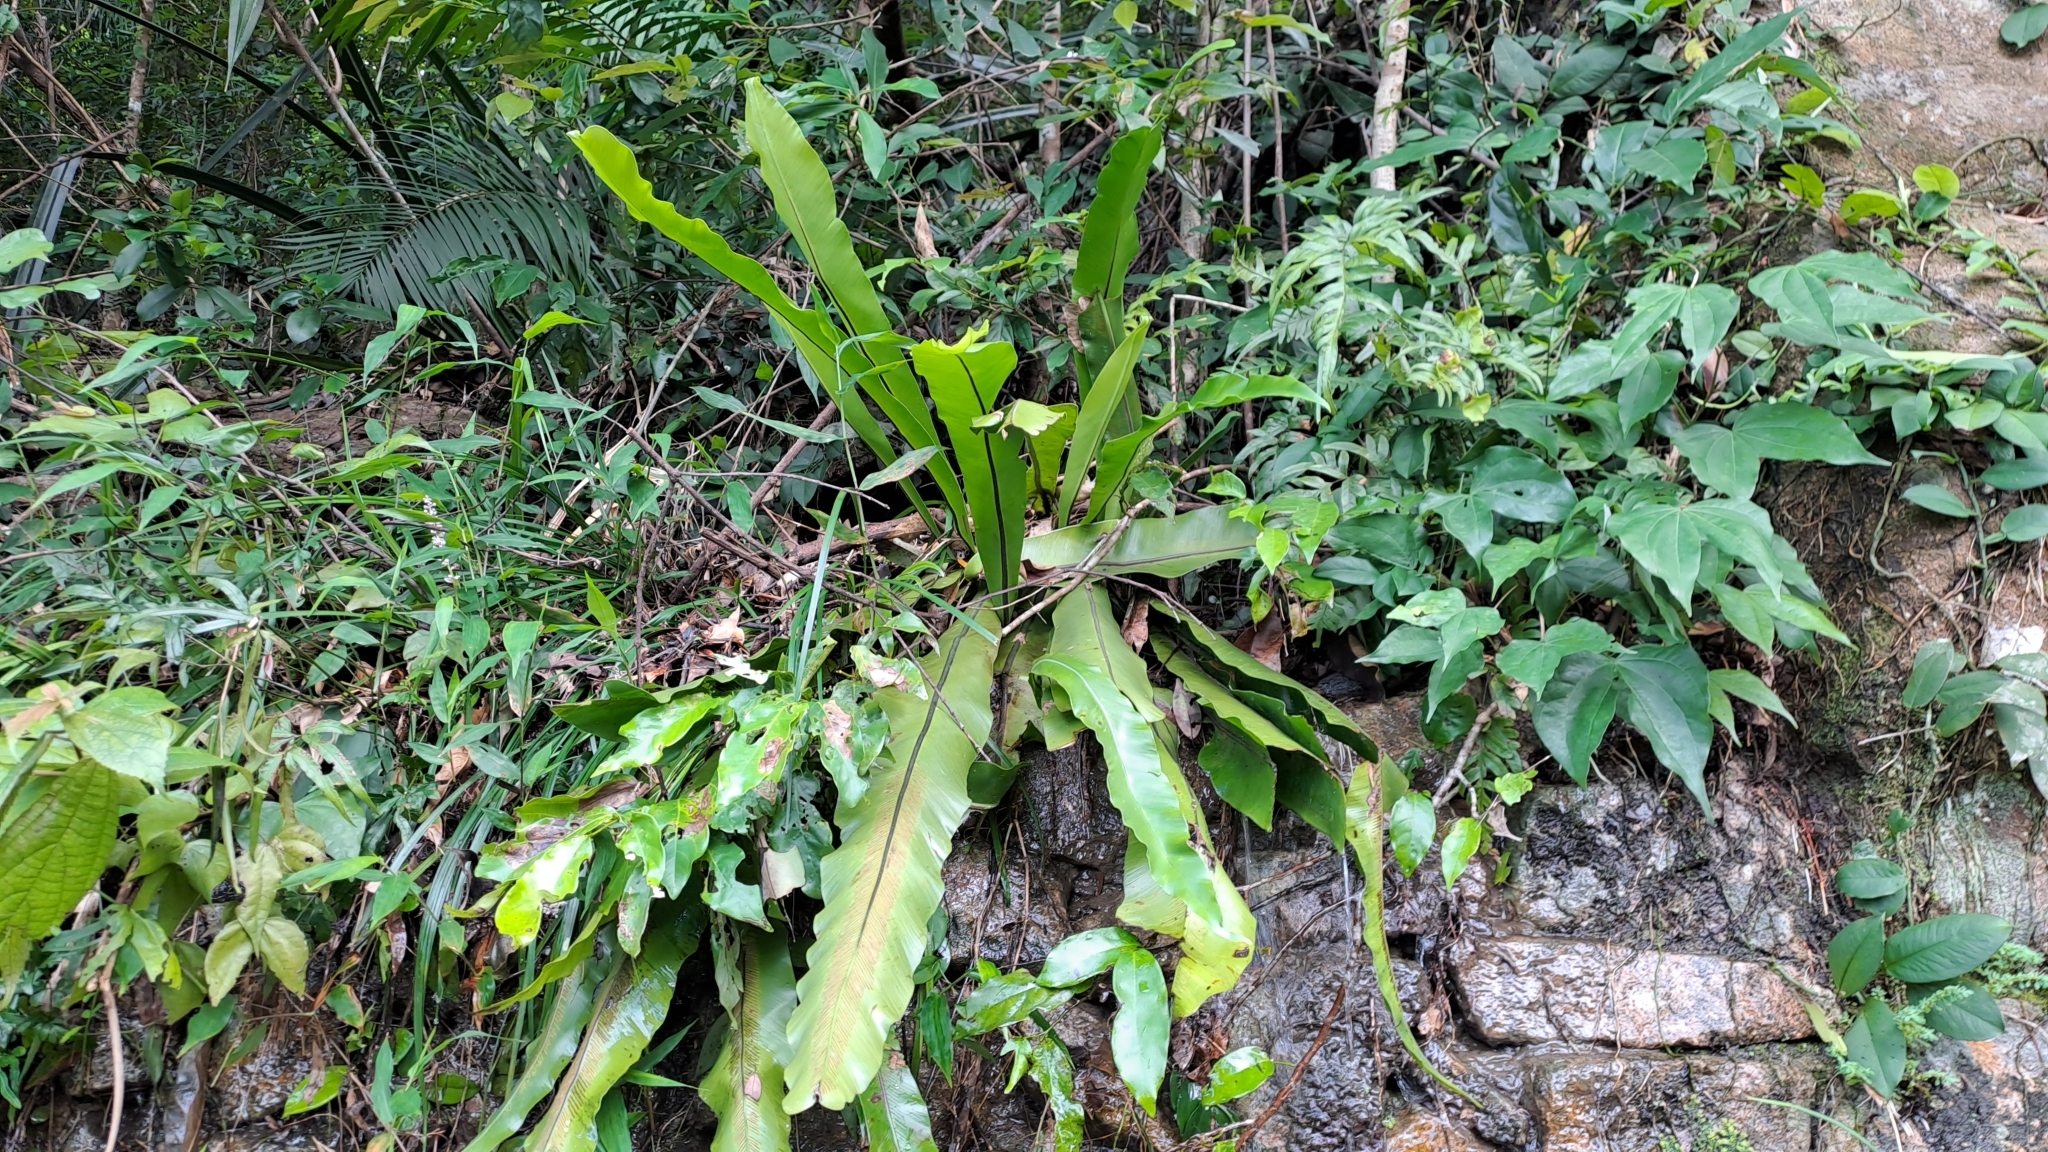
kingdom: Plantae
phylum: Tracheophyta
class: Polypodiopsida
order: Polypodiales
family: Aspleniaceae
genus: Asplenium
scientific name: Asplenium nidus
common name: Bird's-nest fern
